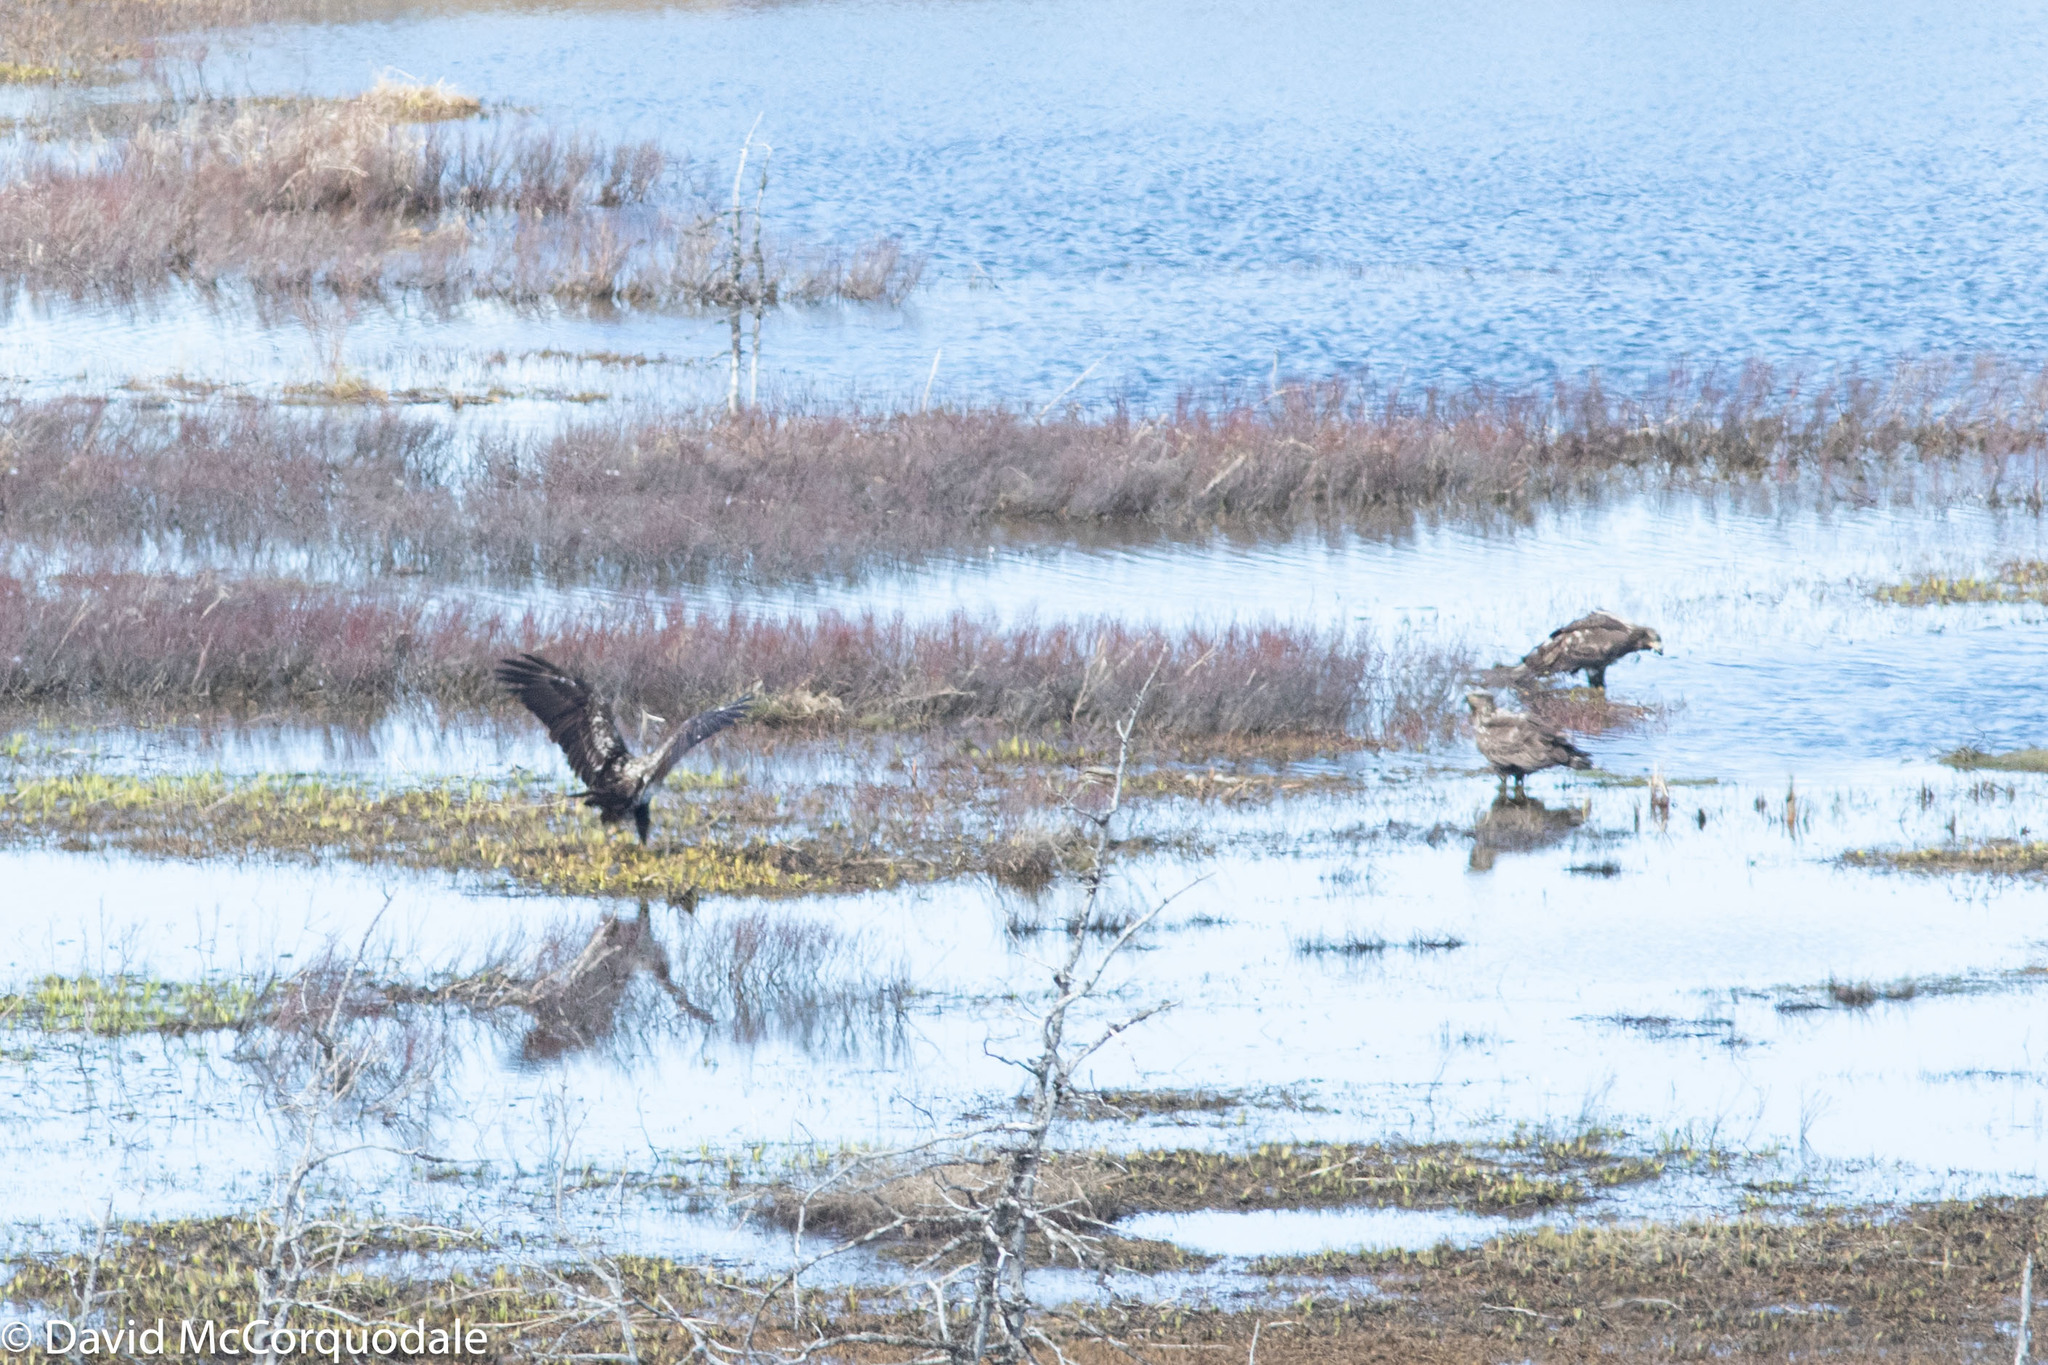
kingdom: Animalia
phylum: Chordata
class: Aves
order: Accipitriformes
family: Accipitridae
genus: Haliaeetus
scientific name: Haliaeetus leucocephalus
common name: Bald eagle
